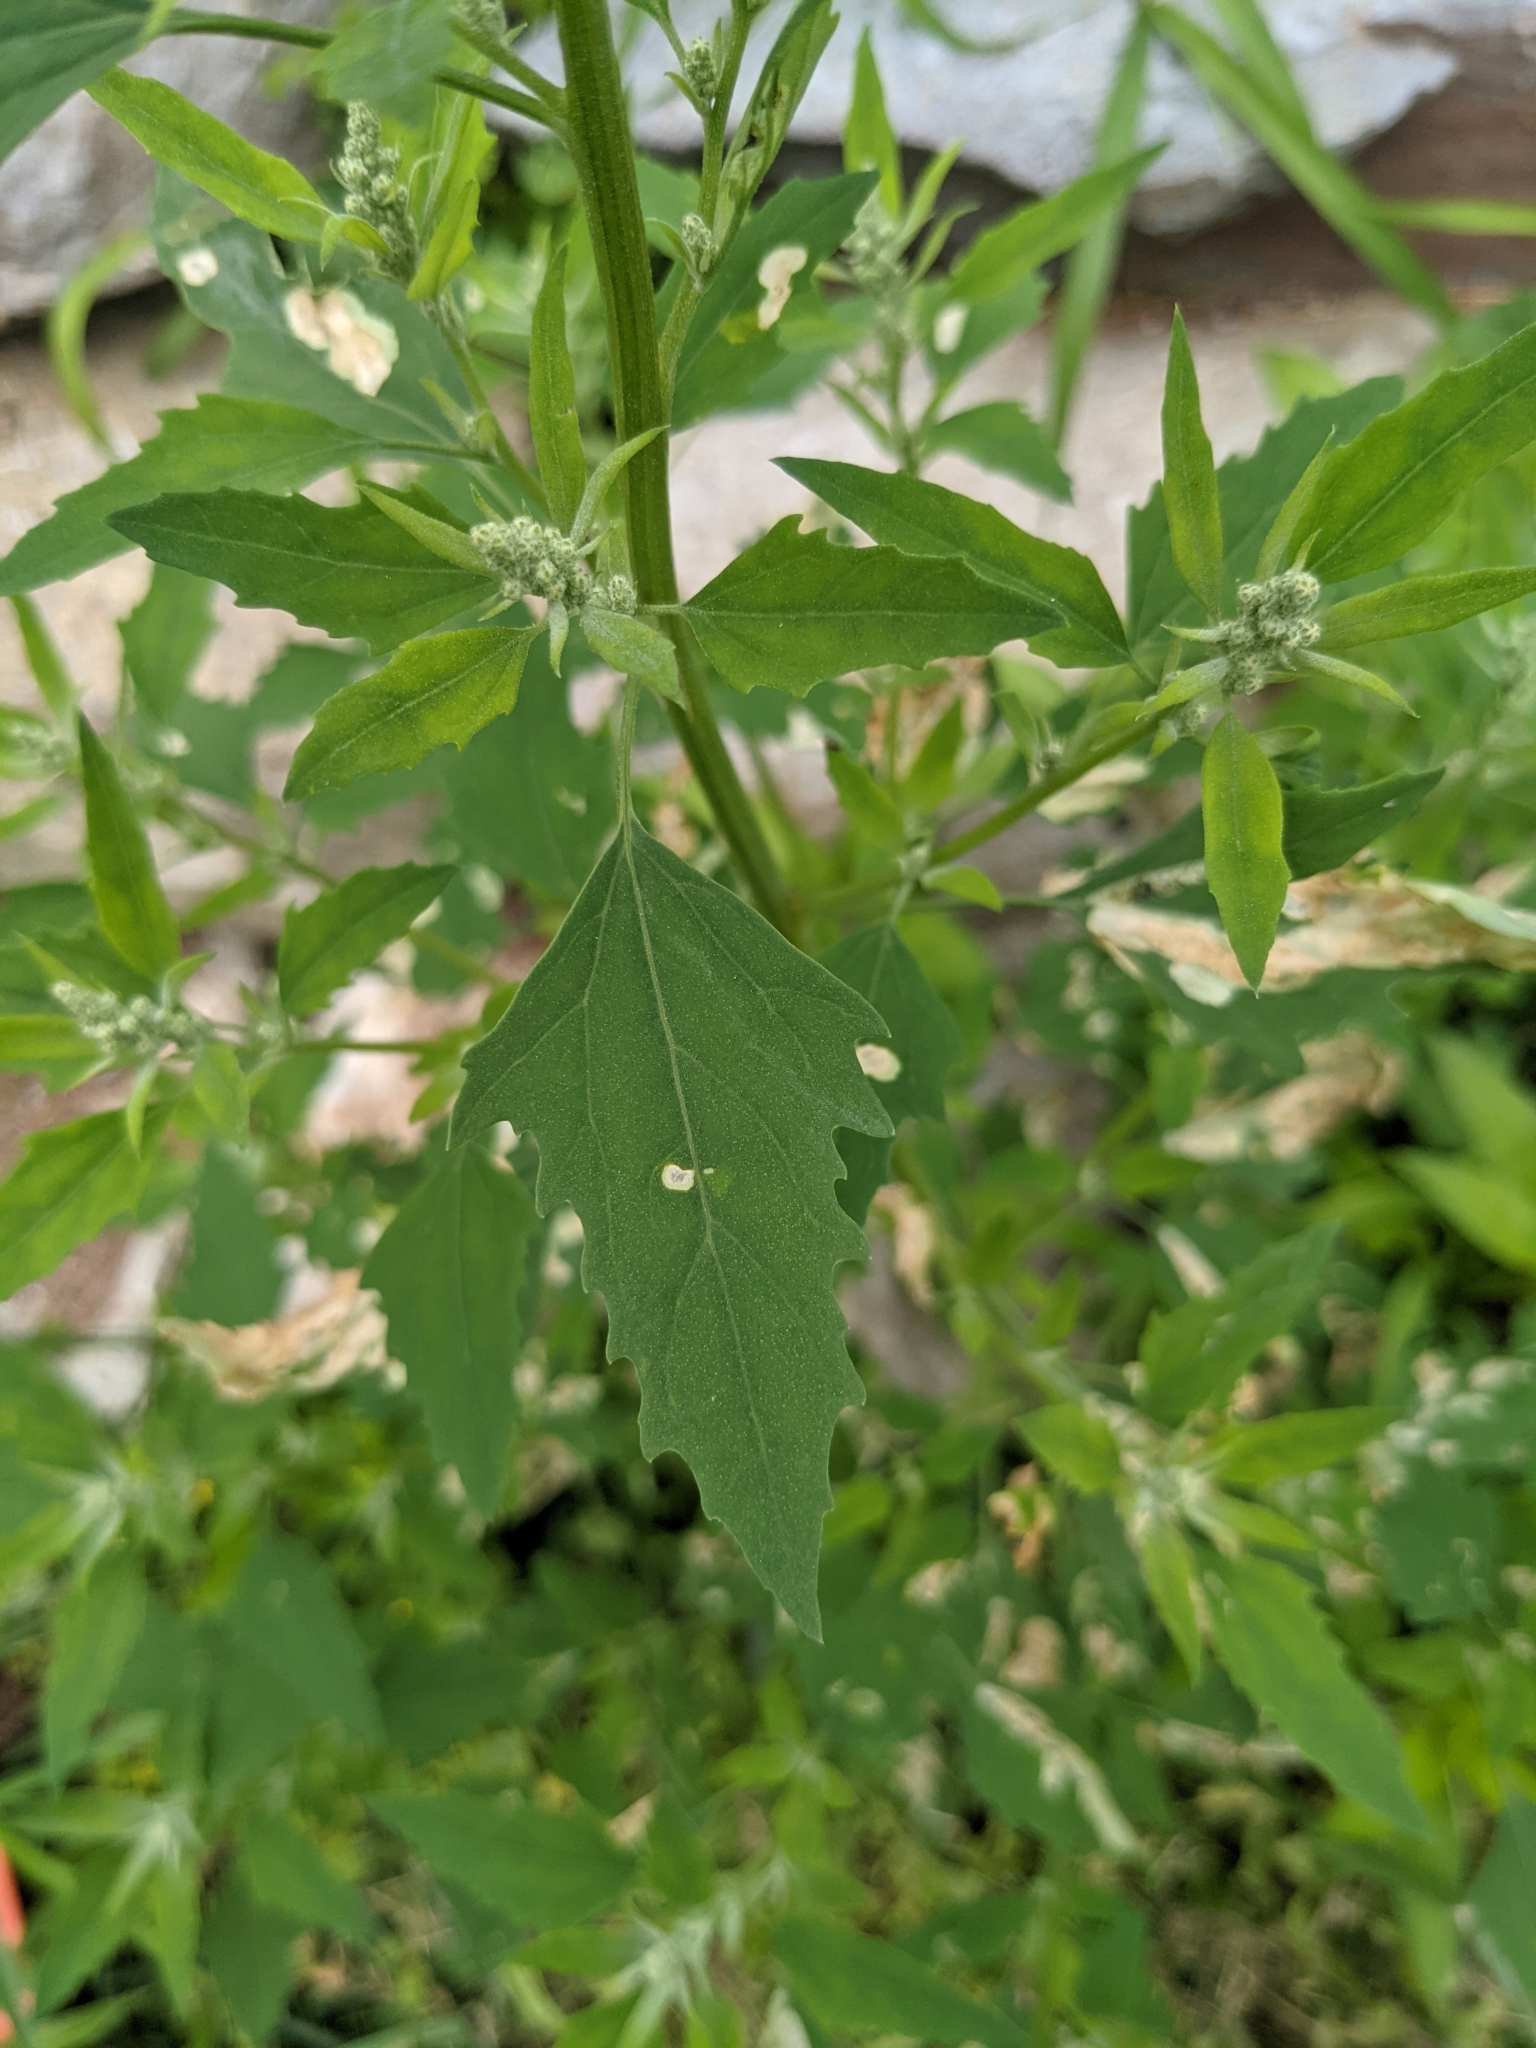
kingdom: Plantae
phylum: Tracheophyta
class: Magnoliopsida
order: Caryophyllales
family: Amaranthaceae
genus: Chenopodium
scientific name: Chenopodium album
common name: Fat-hen
